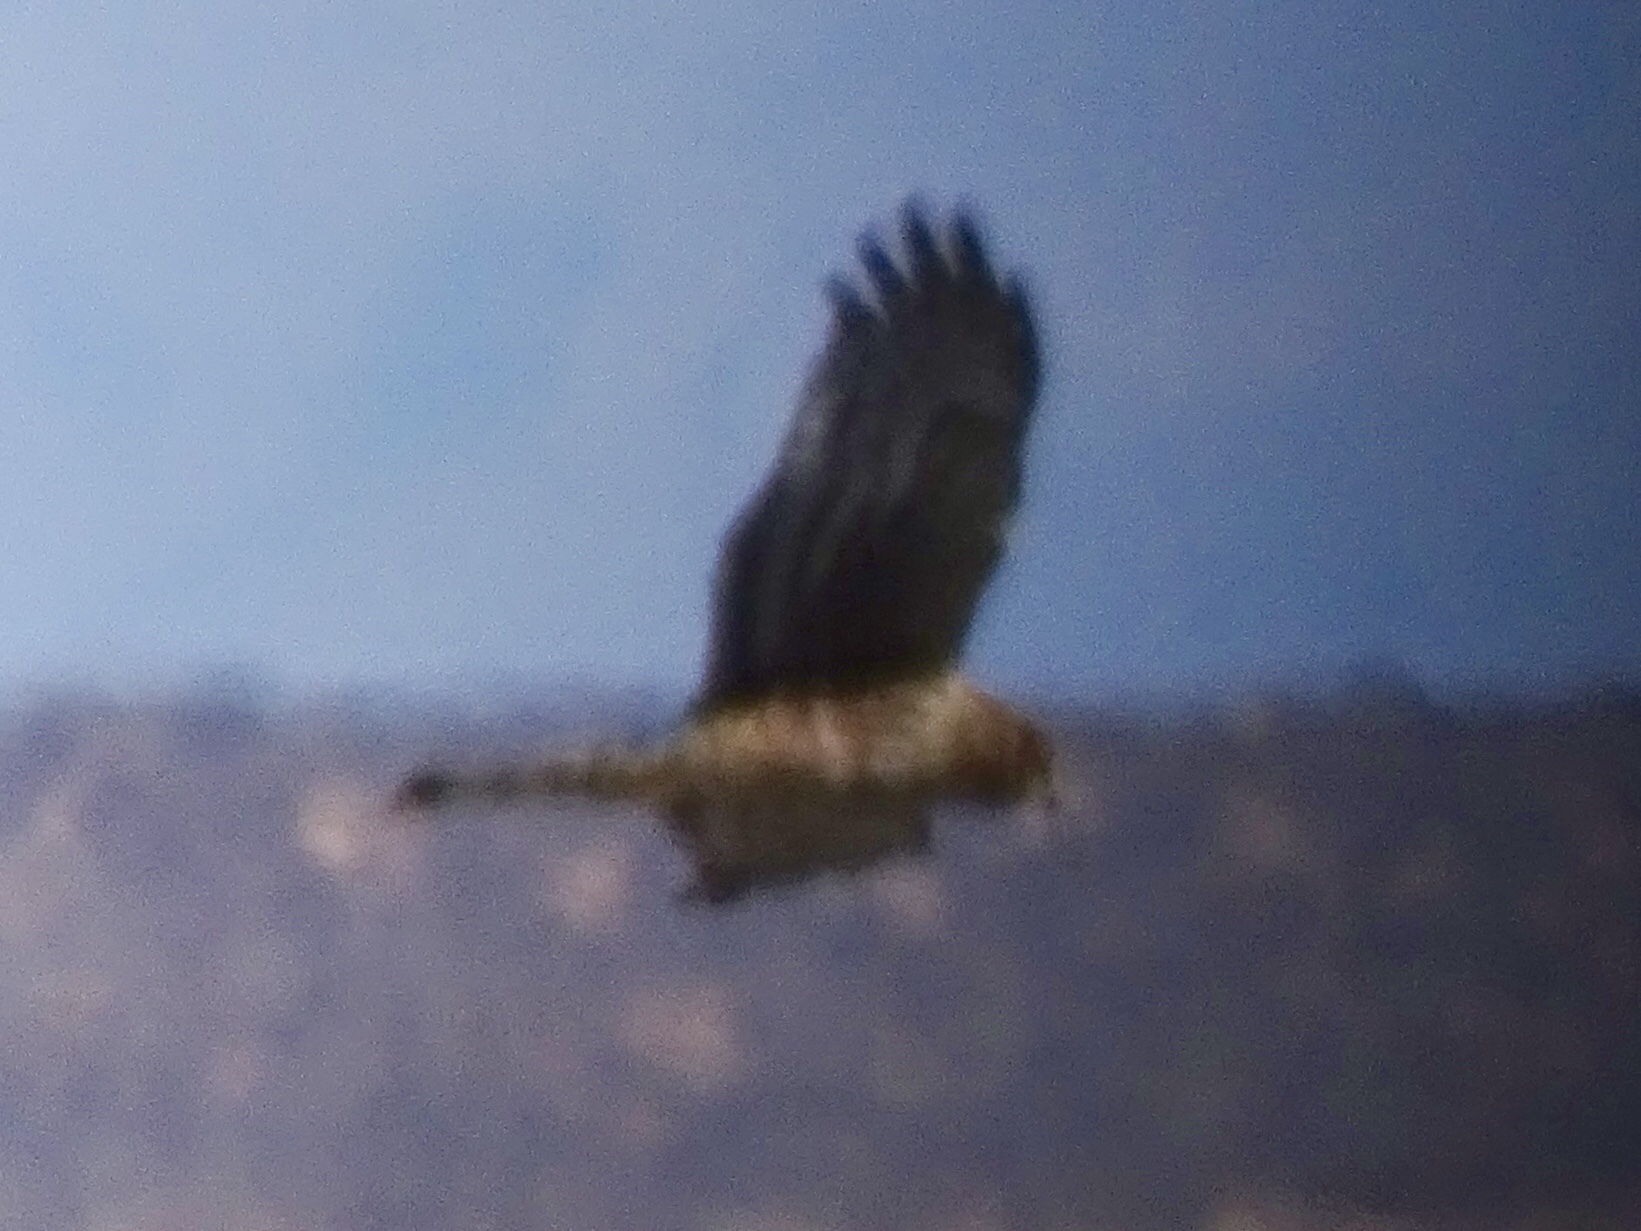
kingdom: Animalia
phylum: Chordata
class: Aves
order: Accipitriformes
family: Accipitridae
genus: Circus
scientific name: Circus cyaneus
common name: Hen harrier
